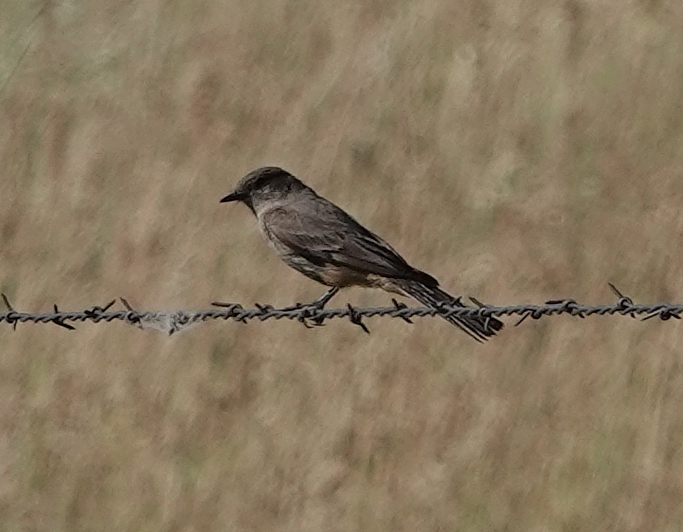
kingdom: Animalia
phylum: Chordata
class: Aves
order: Passeriformes
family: Tyrannidae
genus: Sayornis
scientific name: Sayornis saya
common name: Say's phoebe
